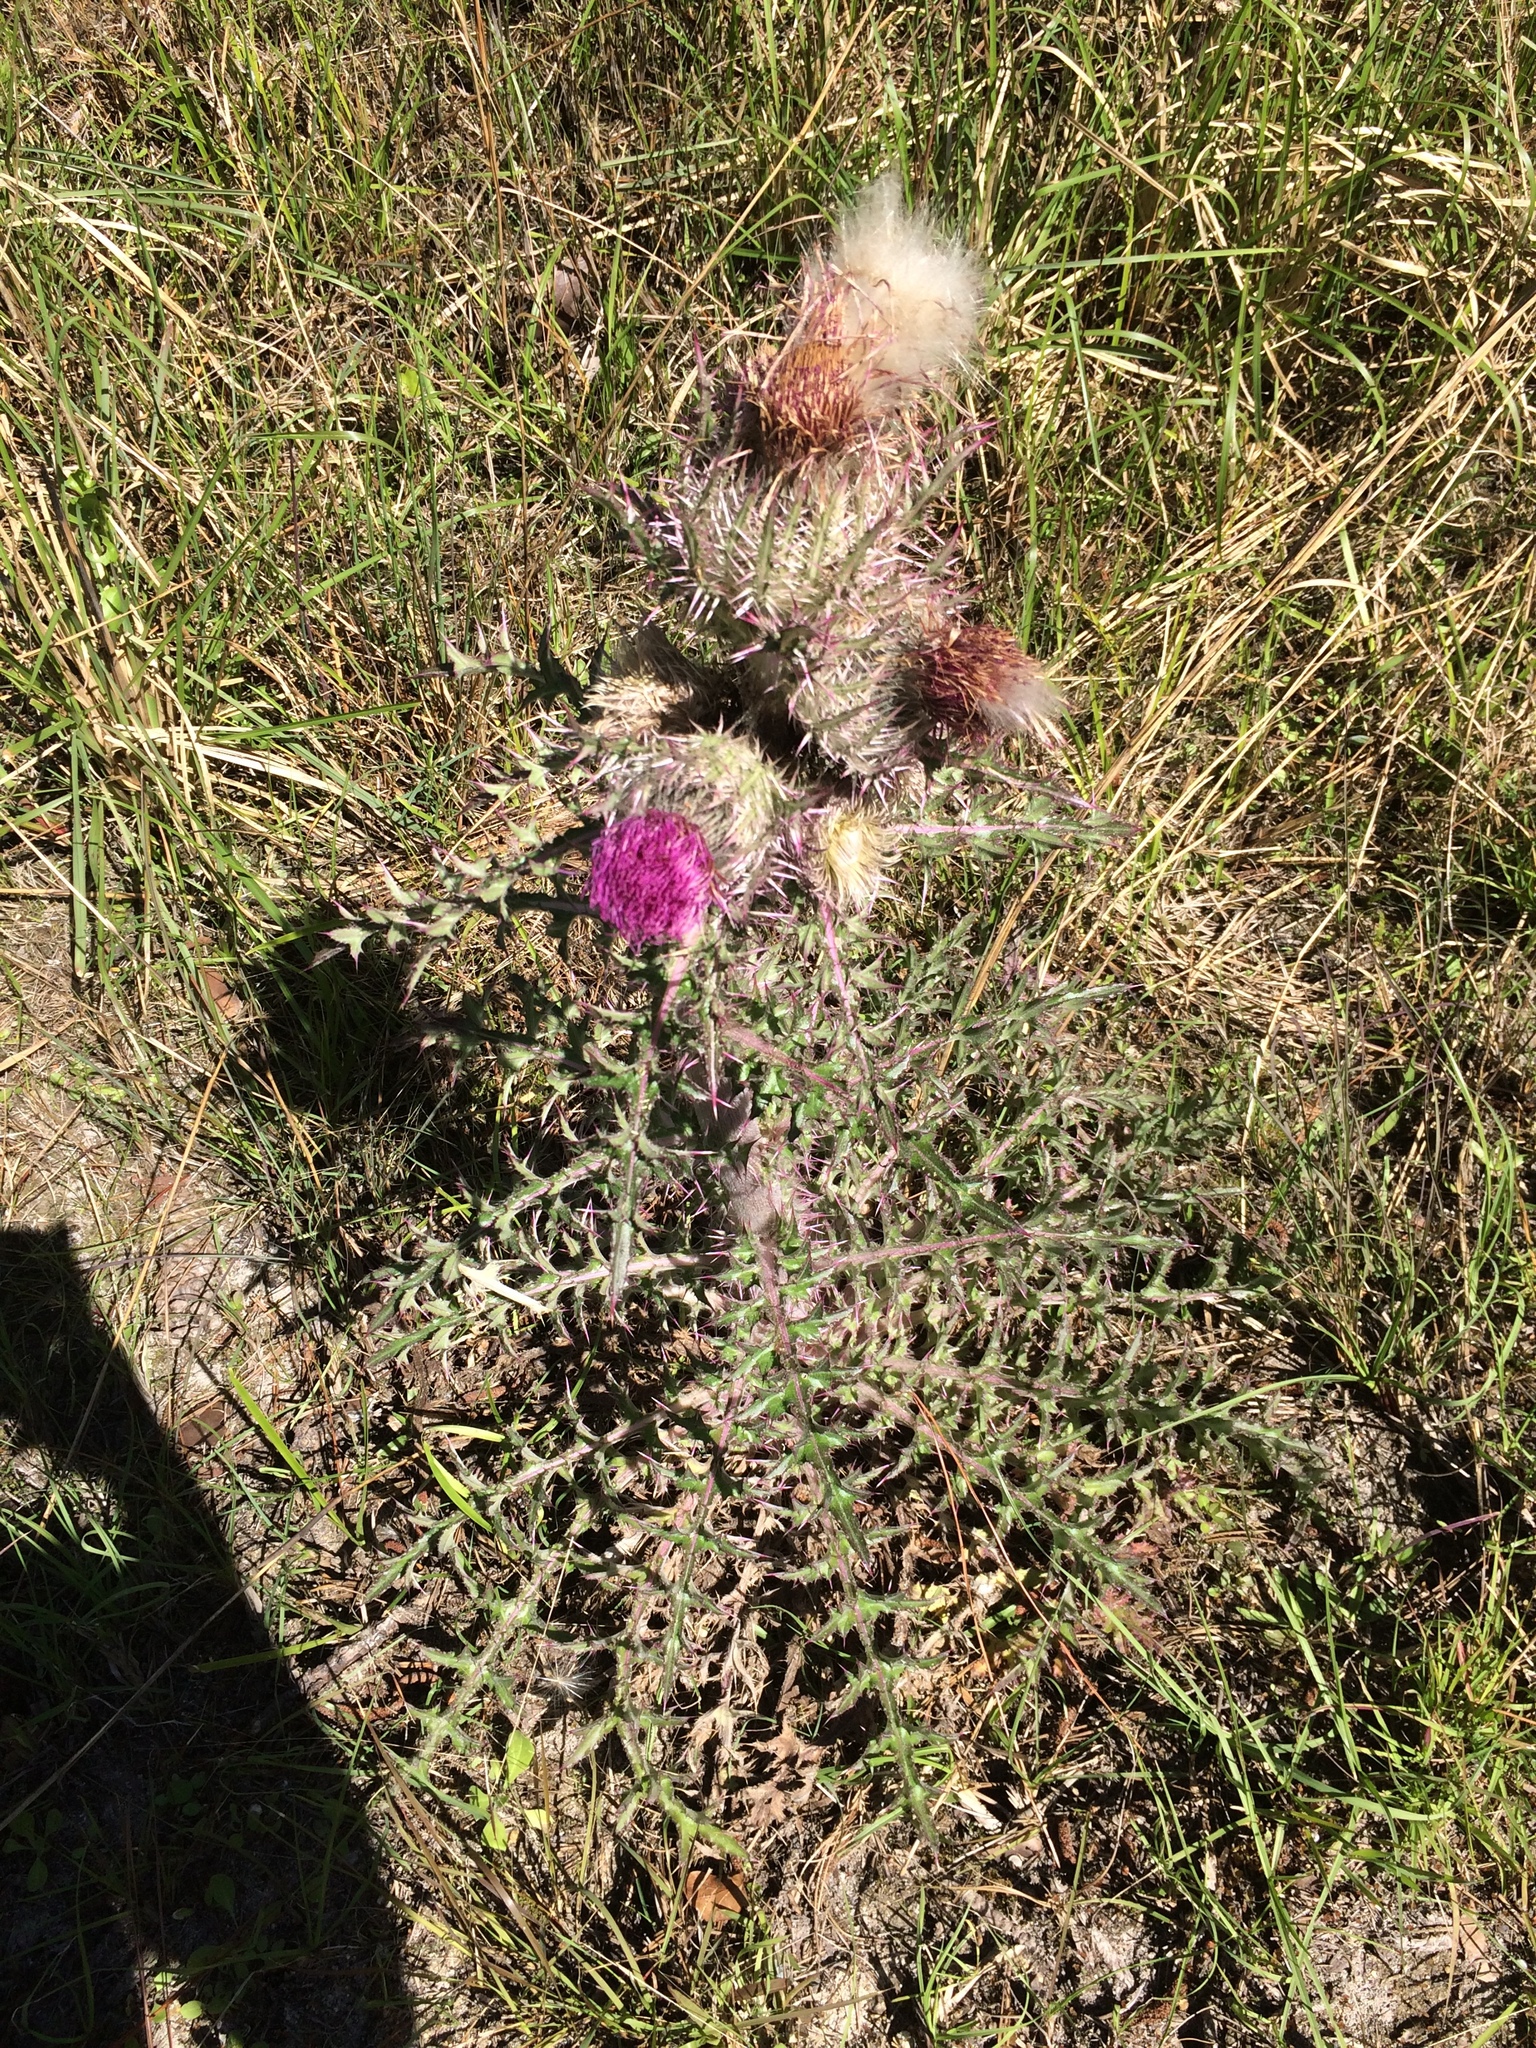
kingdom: Plantae
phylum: Tracheophyta
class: Magnoliopsida
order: Asterales
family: Asteraceae
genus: Cirsium
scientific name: Cirsium horridulum
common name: Bristly thistle
